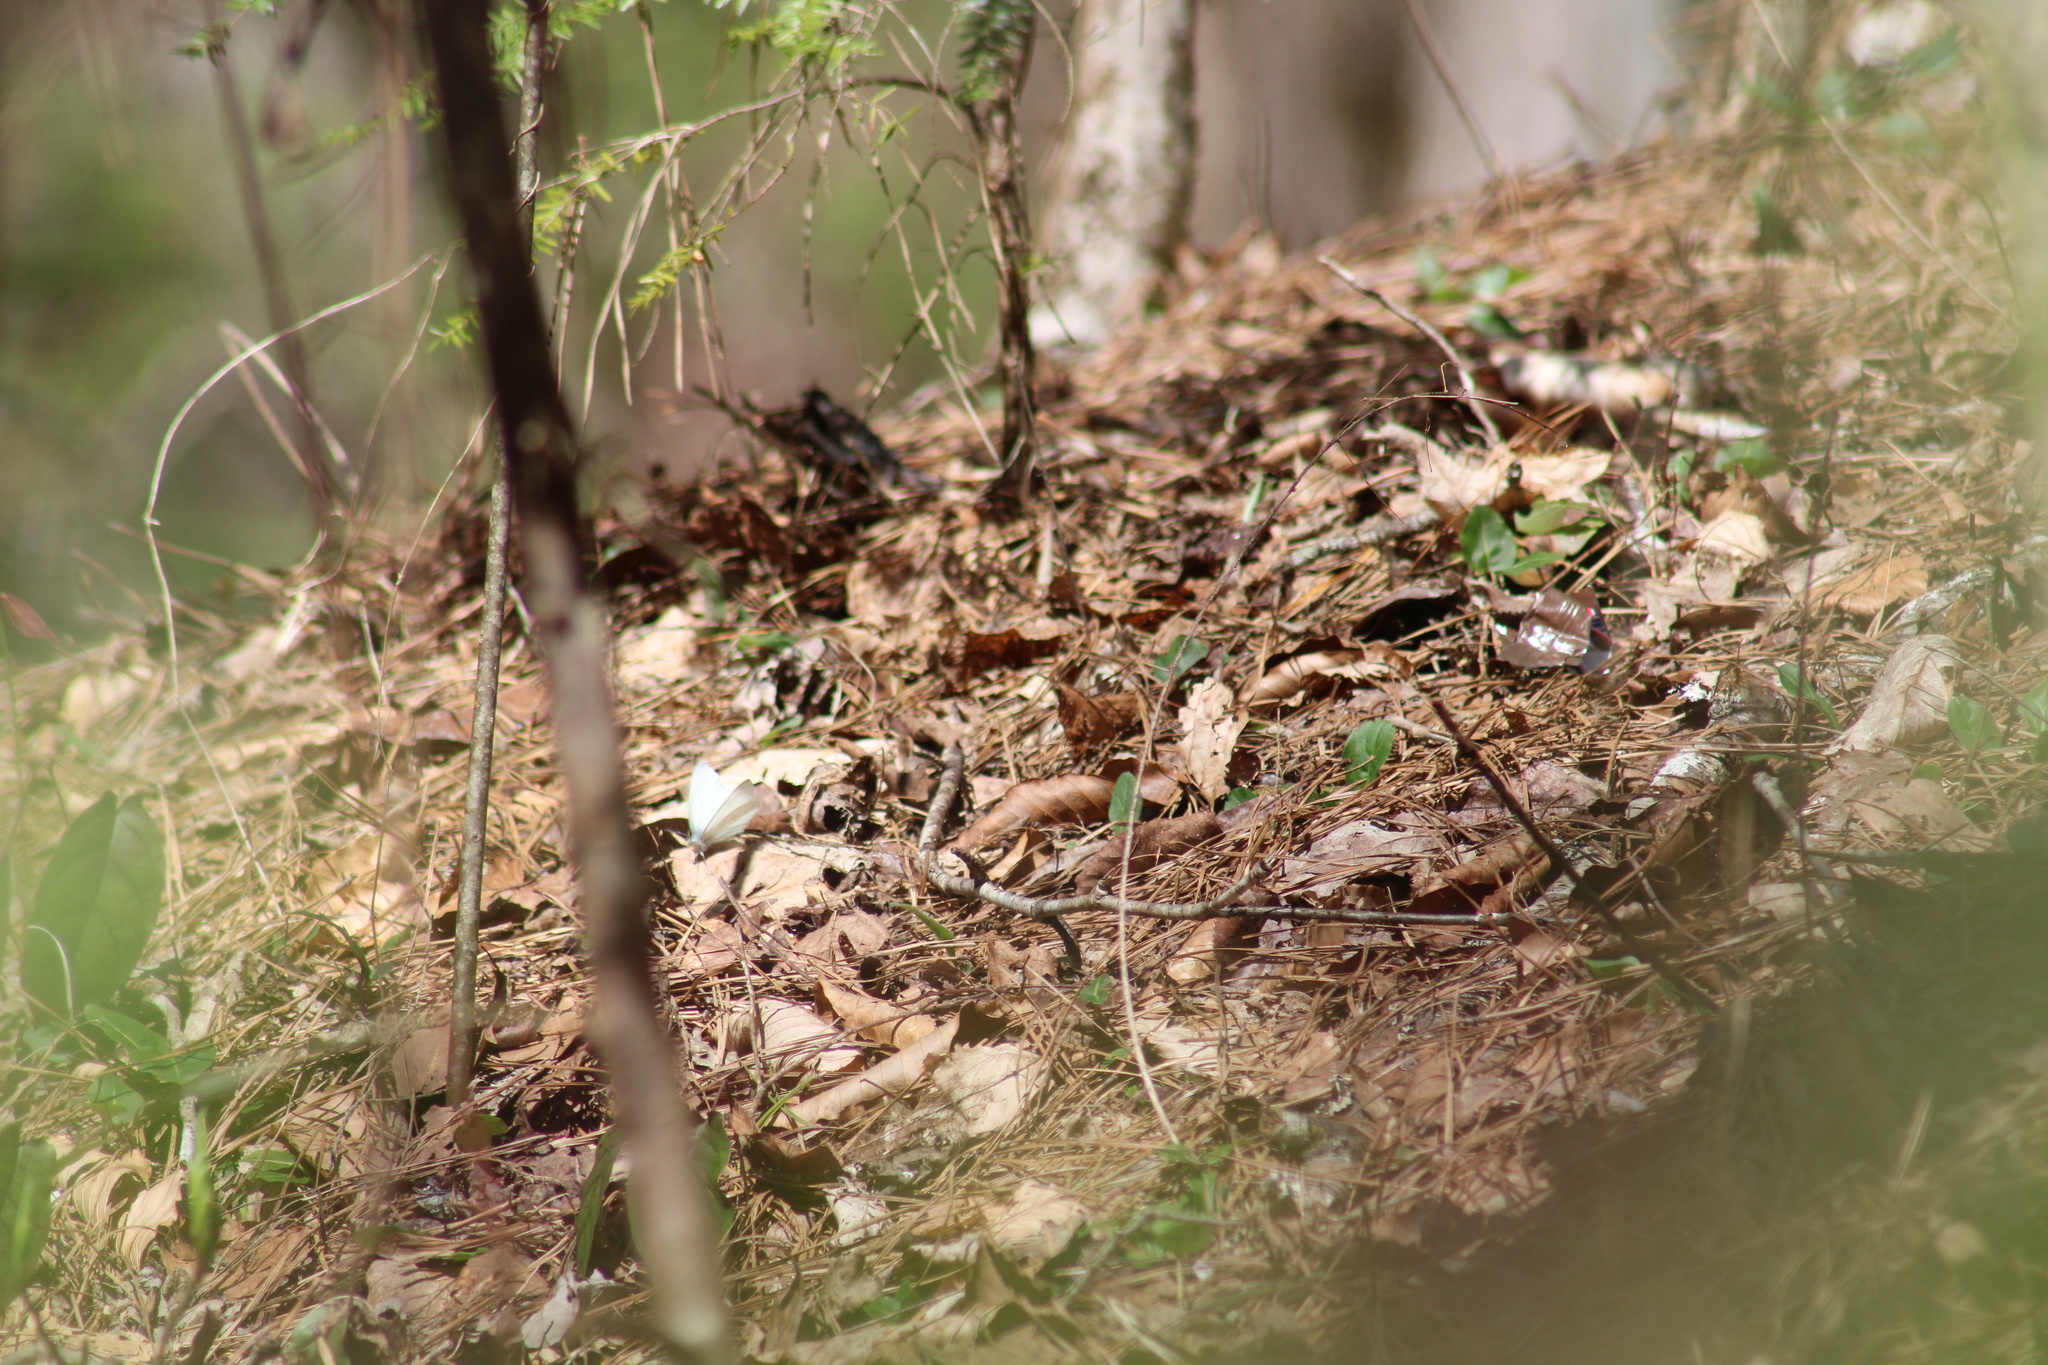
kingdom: Animalia
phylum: Arthropoda
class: Insecta
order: Lepidoptera
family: Pieridae
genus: Pieris
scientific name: Pieris virginiensis
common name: West virginia white
